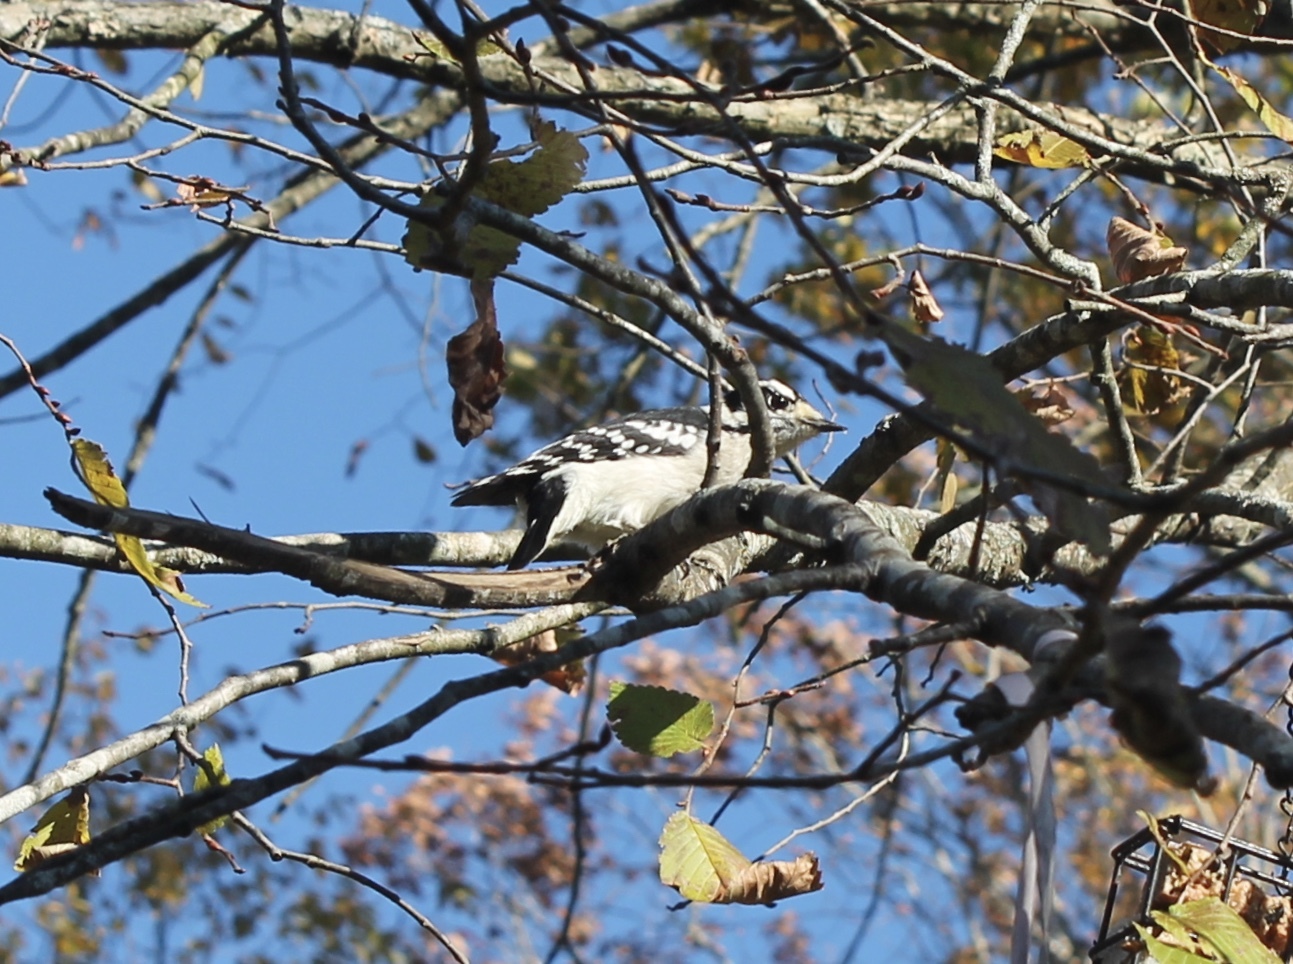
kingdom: Animalia
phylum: Chordata
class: Aves
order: Piciformes
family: Picidae
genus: Dryobates
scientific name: Dryobates pubescens
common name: Downy woodpecker
